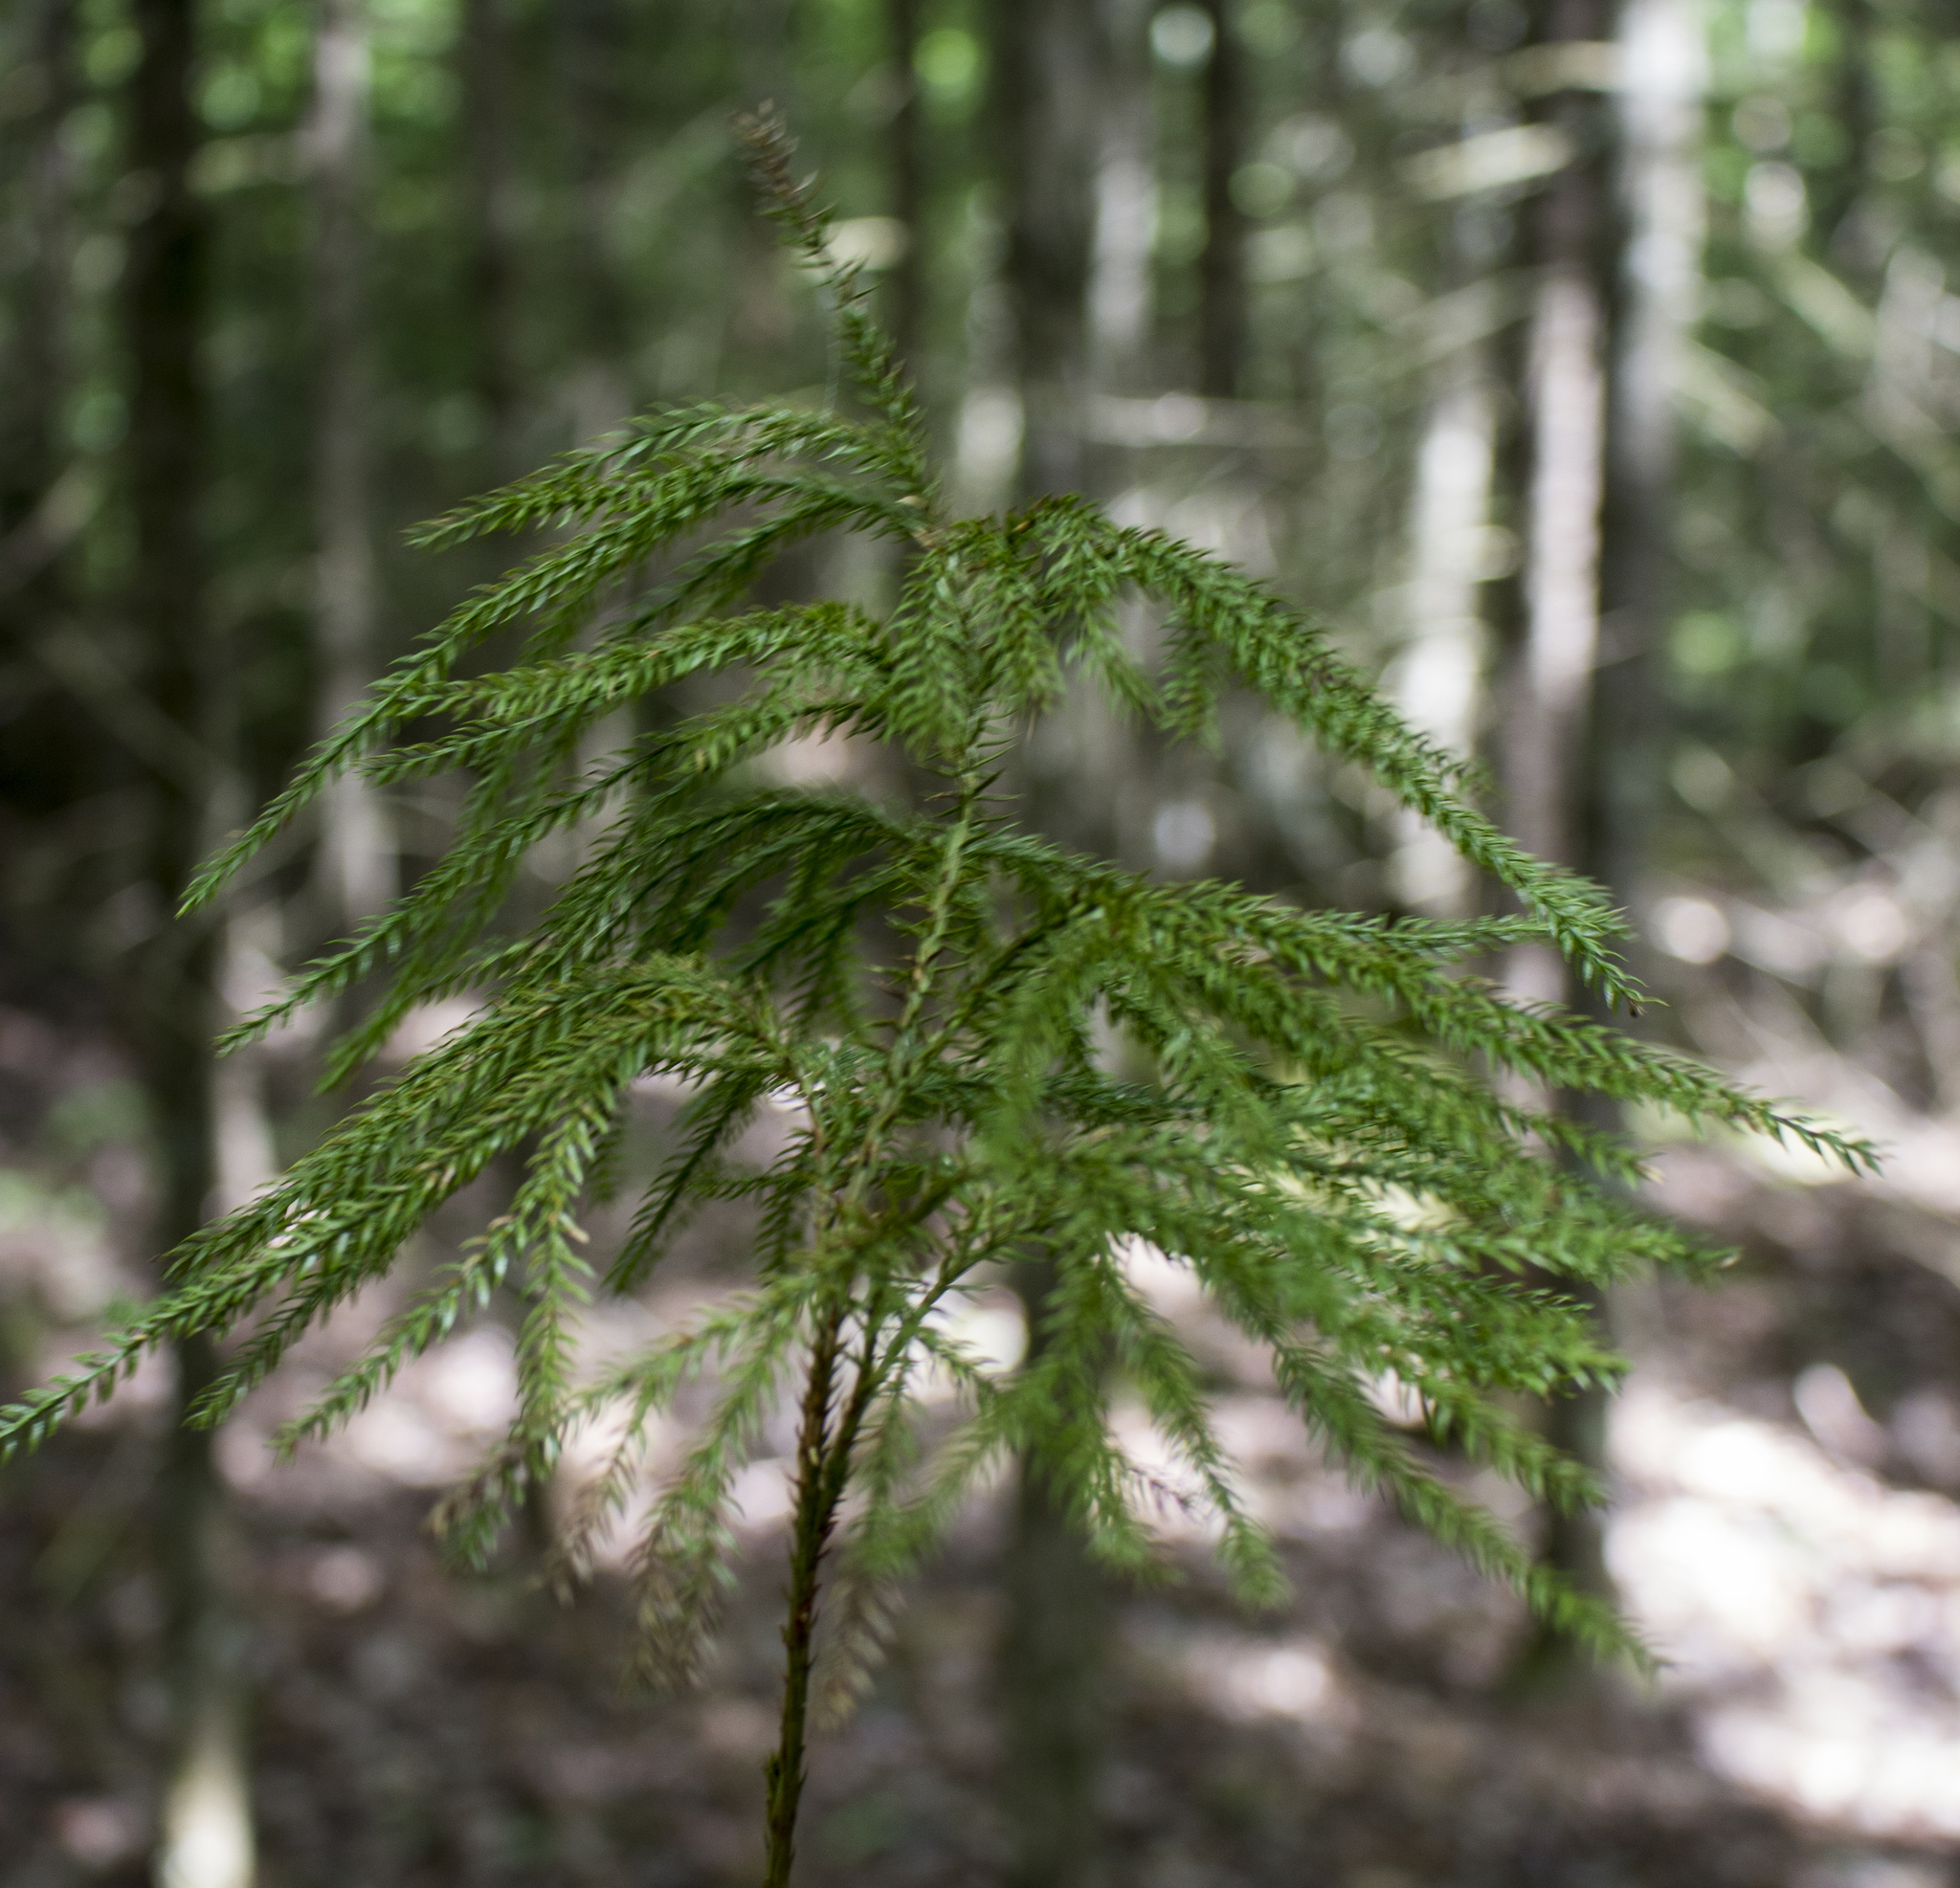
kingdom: Plantae
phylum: Tracheophyta
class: Lycopodiopsida
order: Lycopodiales
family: Lycopodiaceae
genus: Dendrolycopodium
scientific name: Dendrolycopodium obscurum
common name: Common ground-pine
